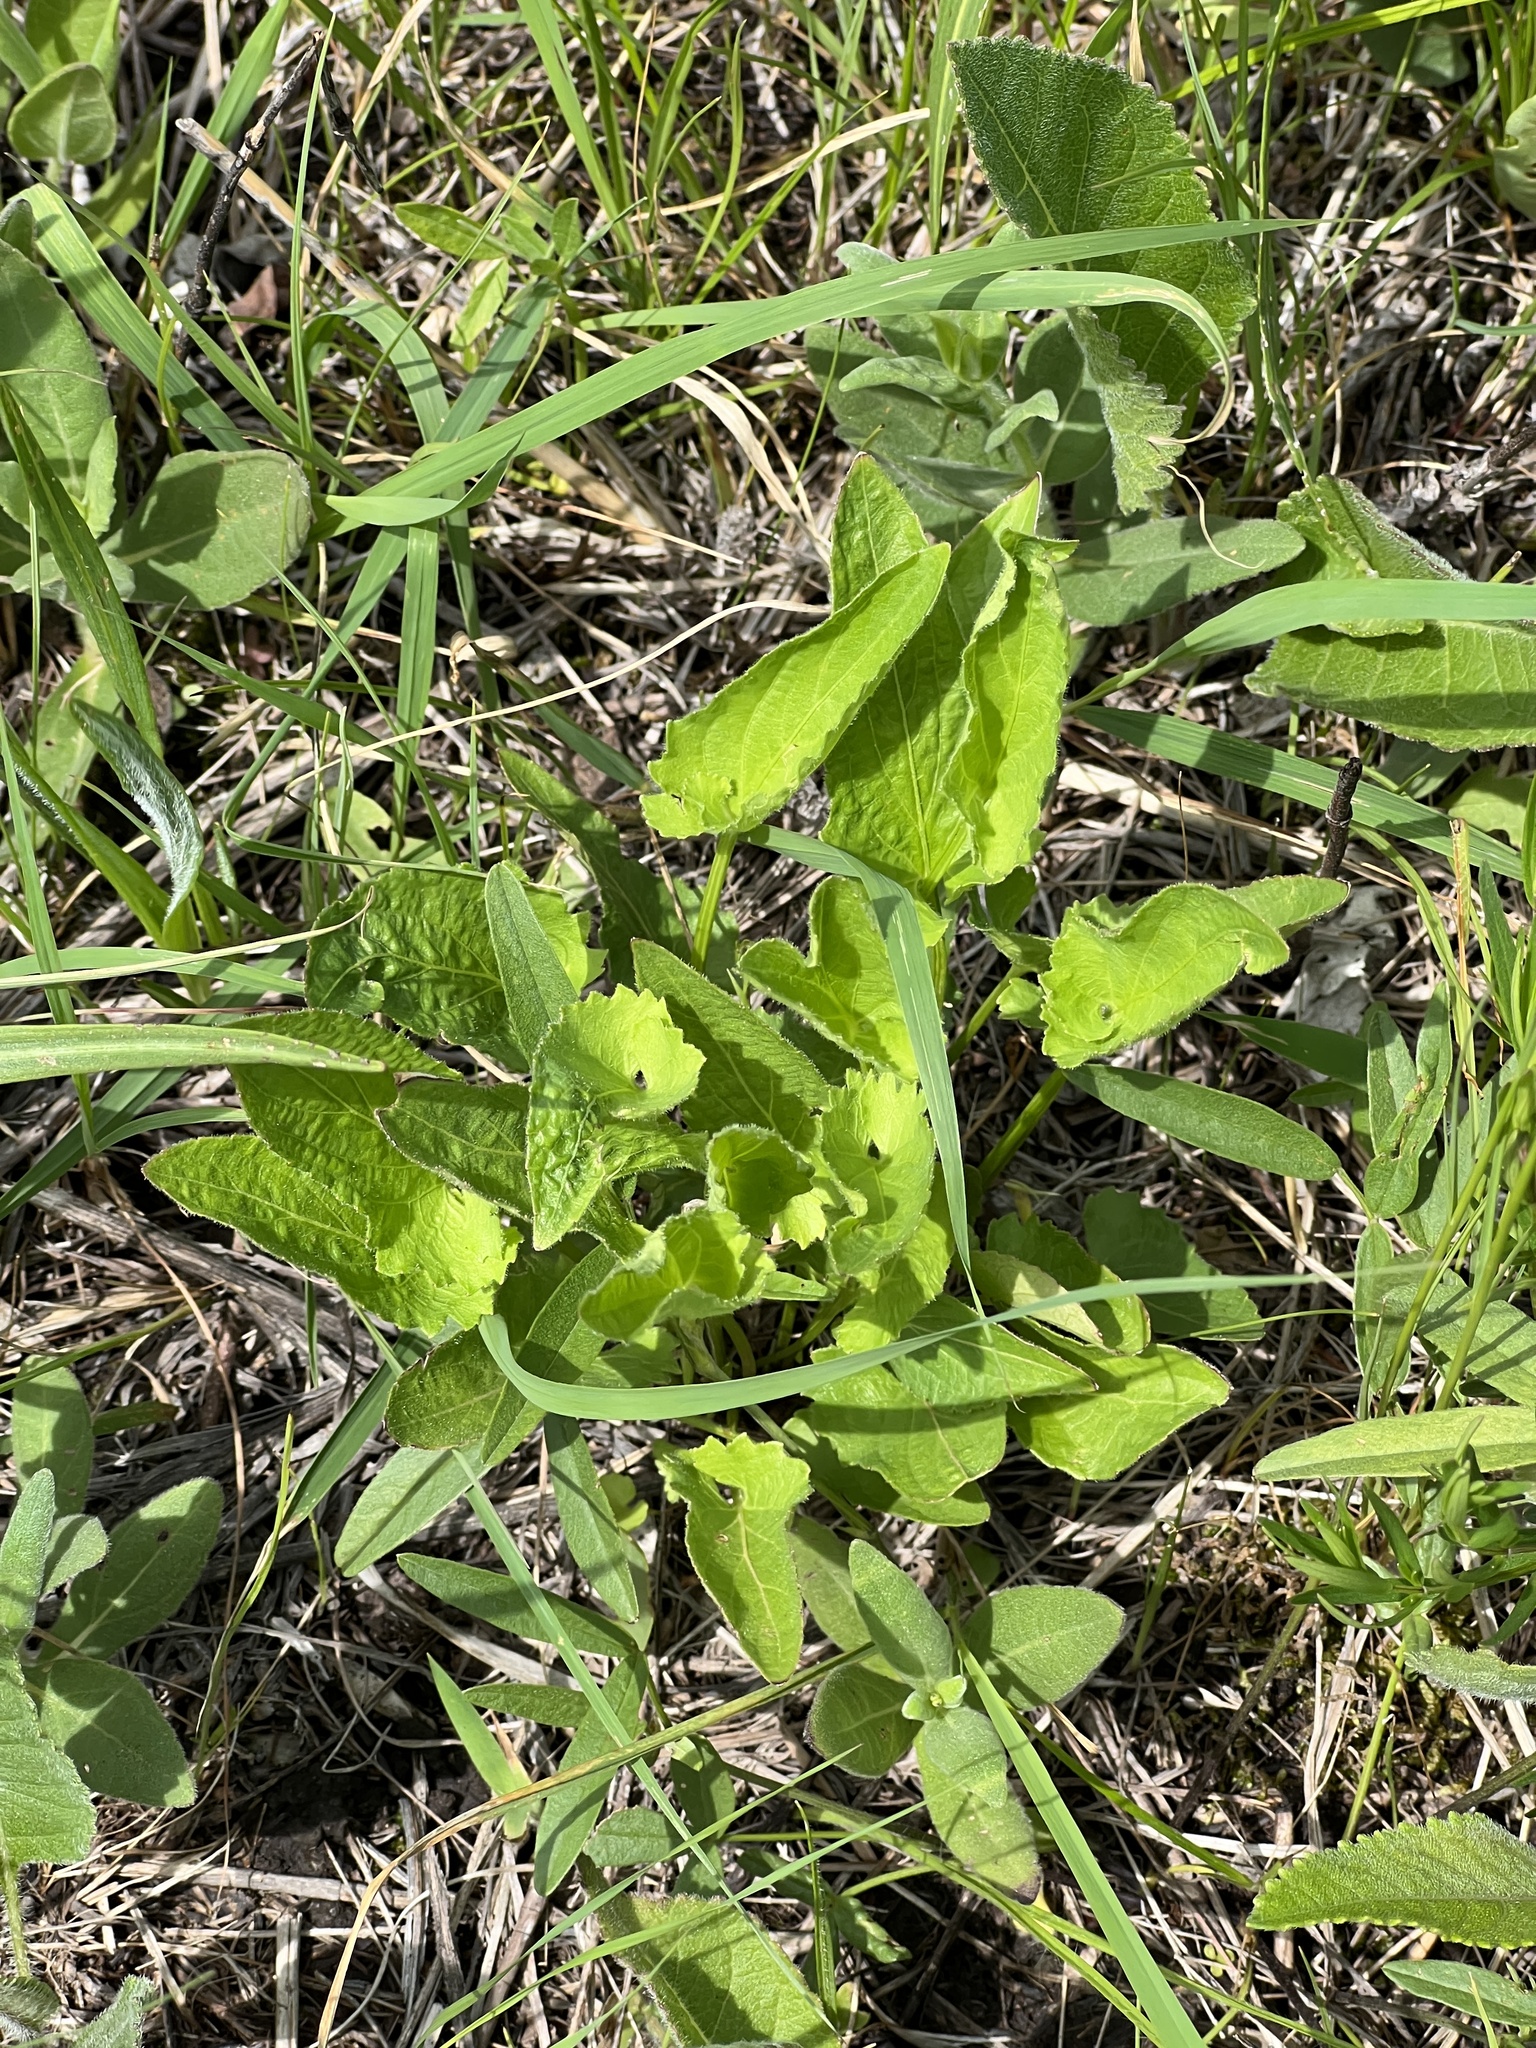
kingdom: Plantae
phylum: Tracheophyta
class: Magnoliopsida
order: Malpighiales
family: Violaceae
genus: Viola
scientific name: Viola sagittata
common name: Arrowhead violet
